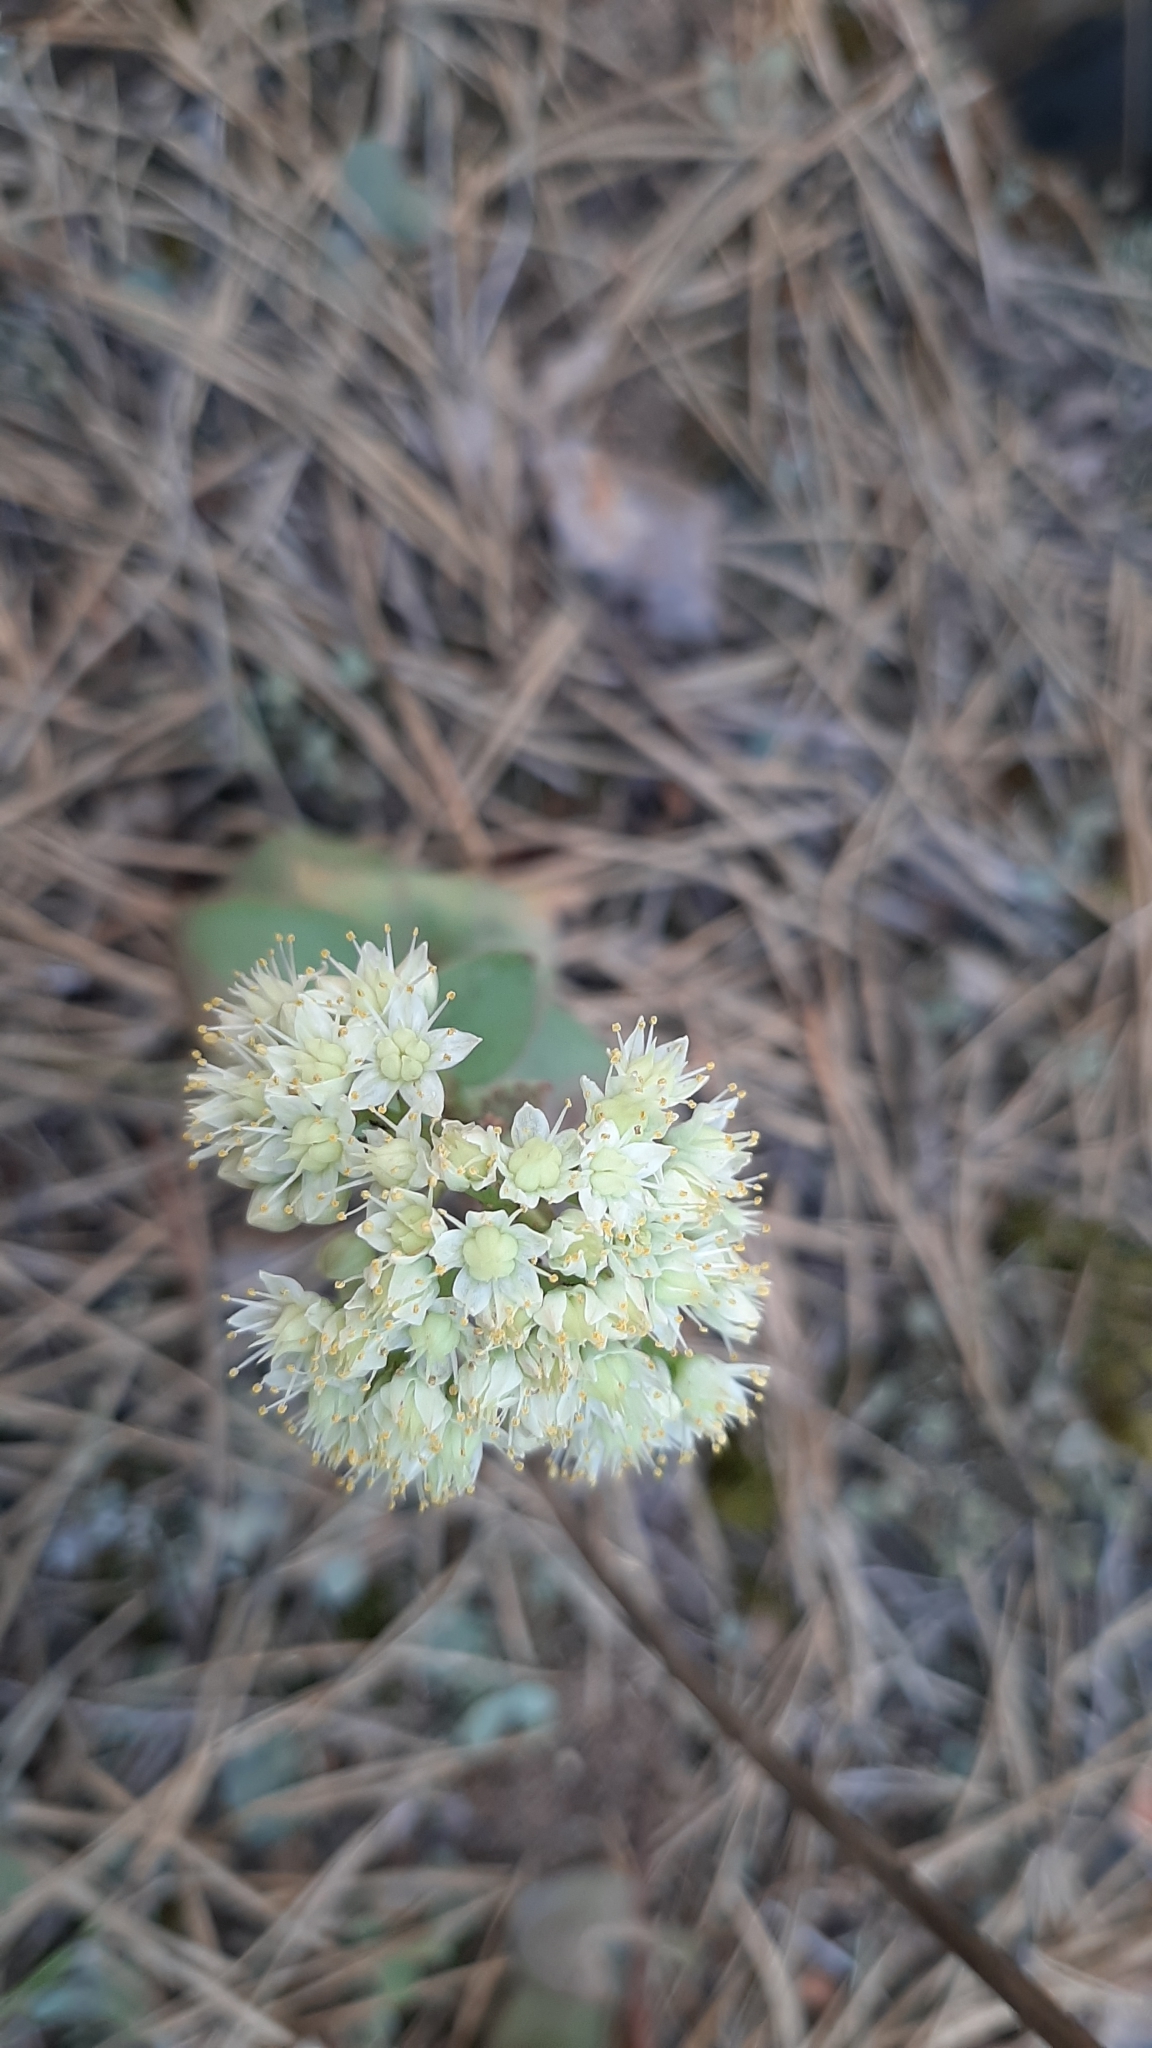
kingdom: Plantae
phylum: Tracheophyta
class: Magnoliopsida
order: Saxifragales
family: Crassulaceae
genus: Hylotelephium
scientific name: Hylotelephium maximum
